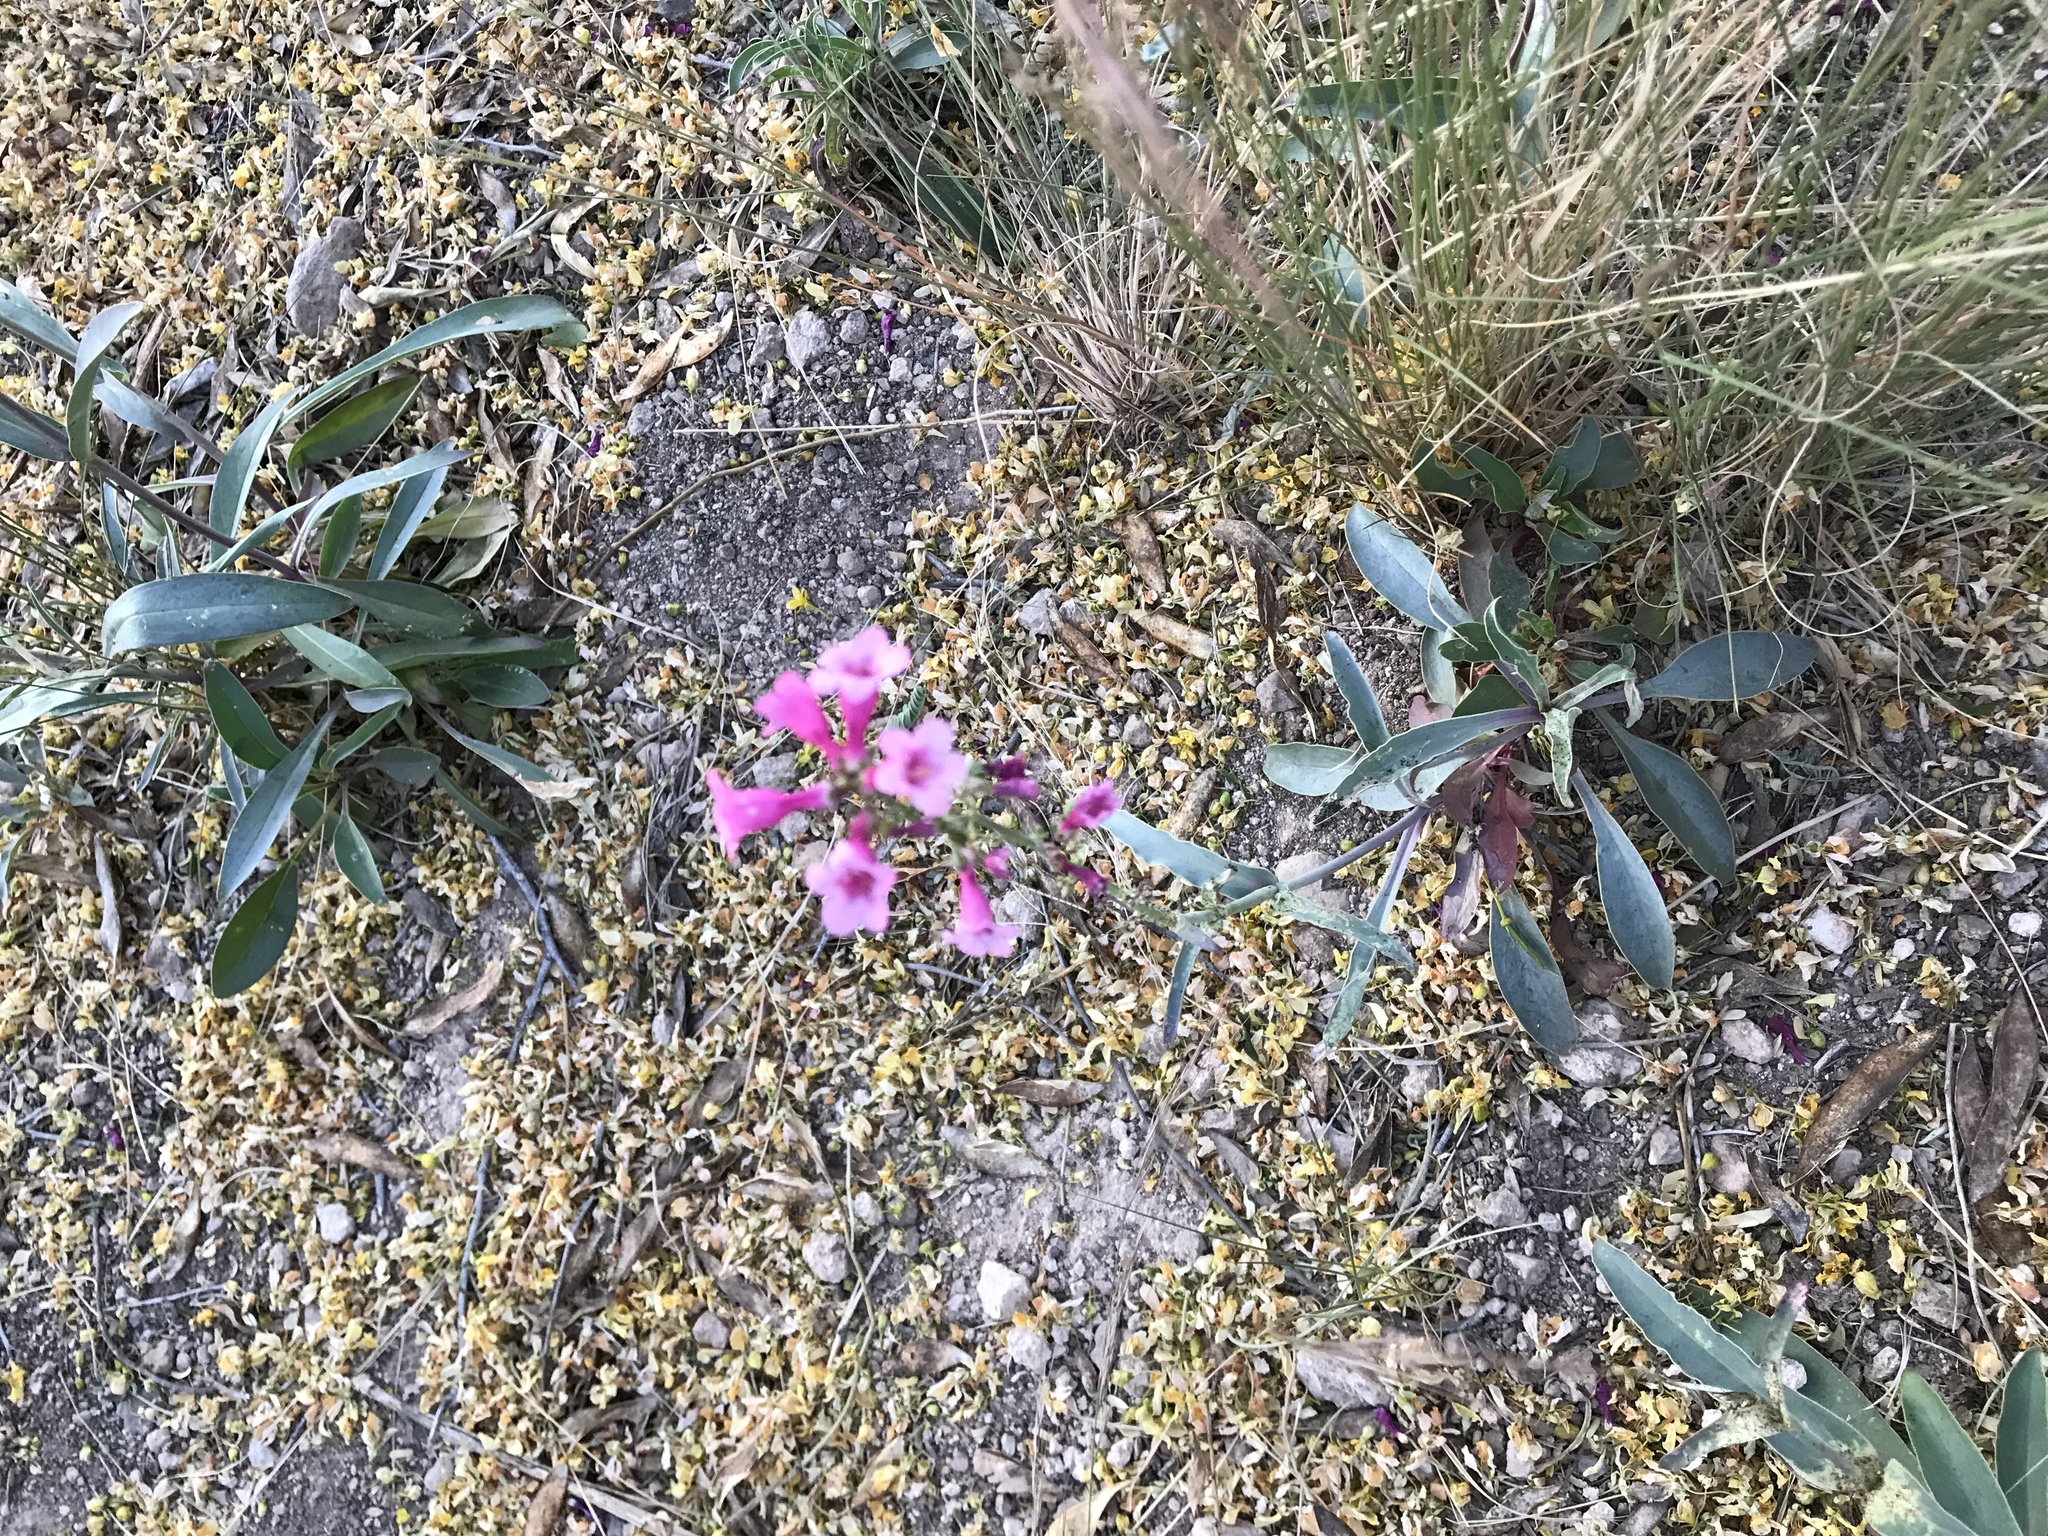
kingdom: Plantae
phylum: Tracheophyta
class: Magnoliopsida
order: Lamiales
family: Plantaginaceae
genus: Penstemon
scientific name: Penstemon parryi
